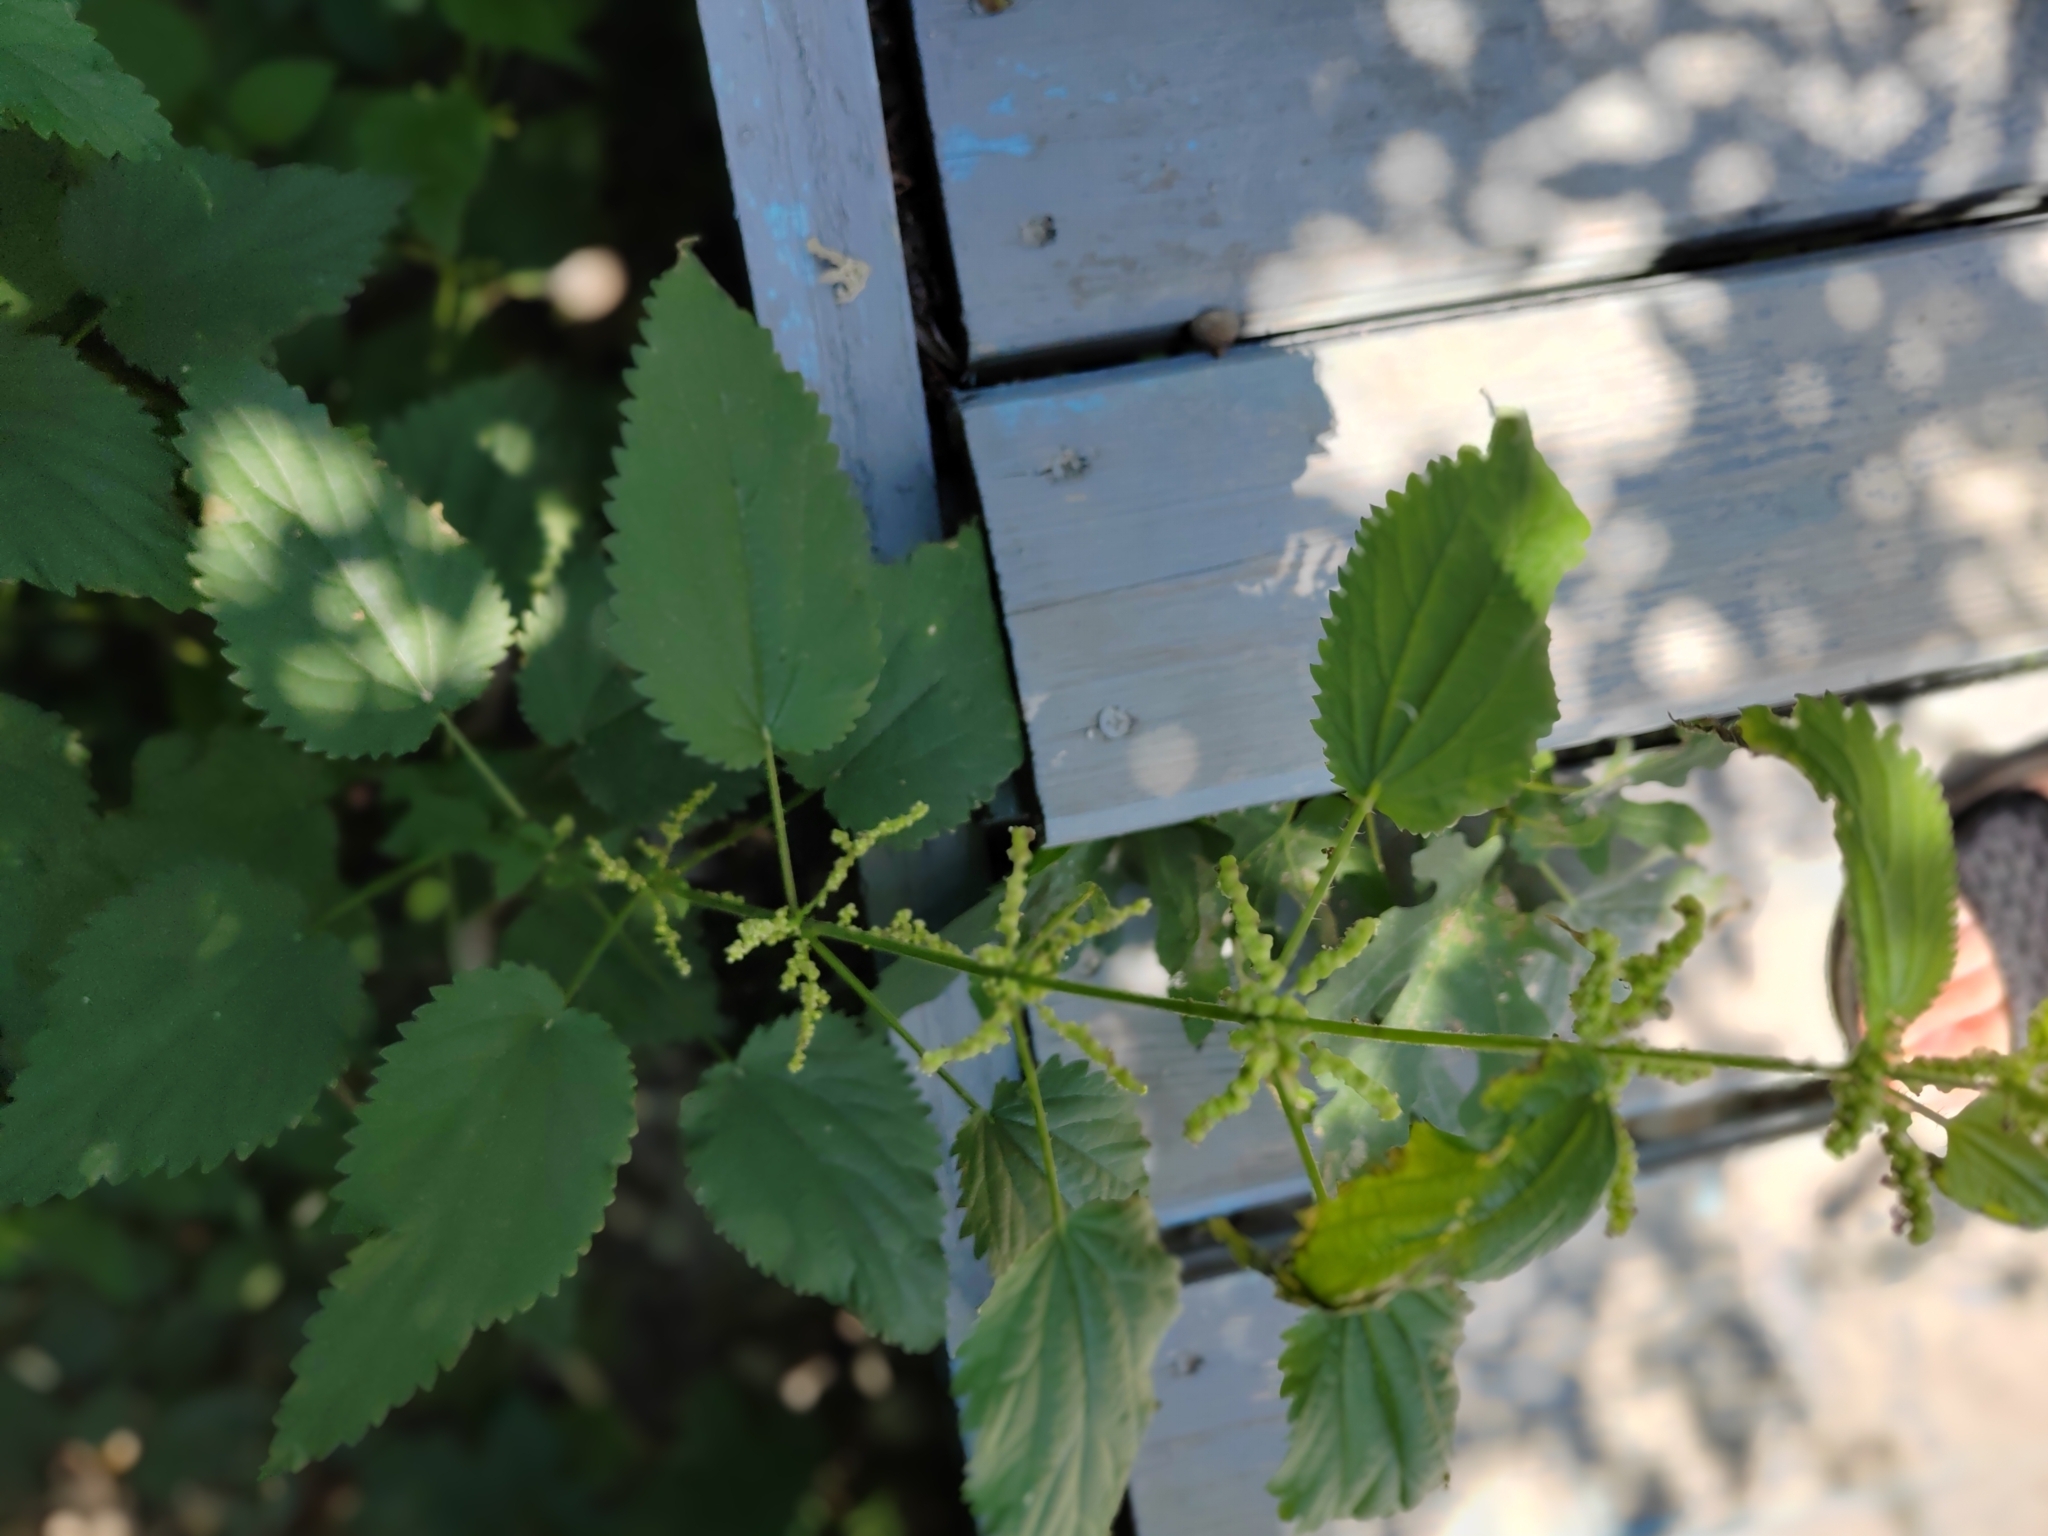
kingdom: Plantae
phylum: Tracheophyta
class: Magnoliopsida
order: Rosales
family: Urticaceae
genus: Urtica
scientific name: Urtica dioica
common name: Common nettle
